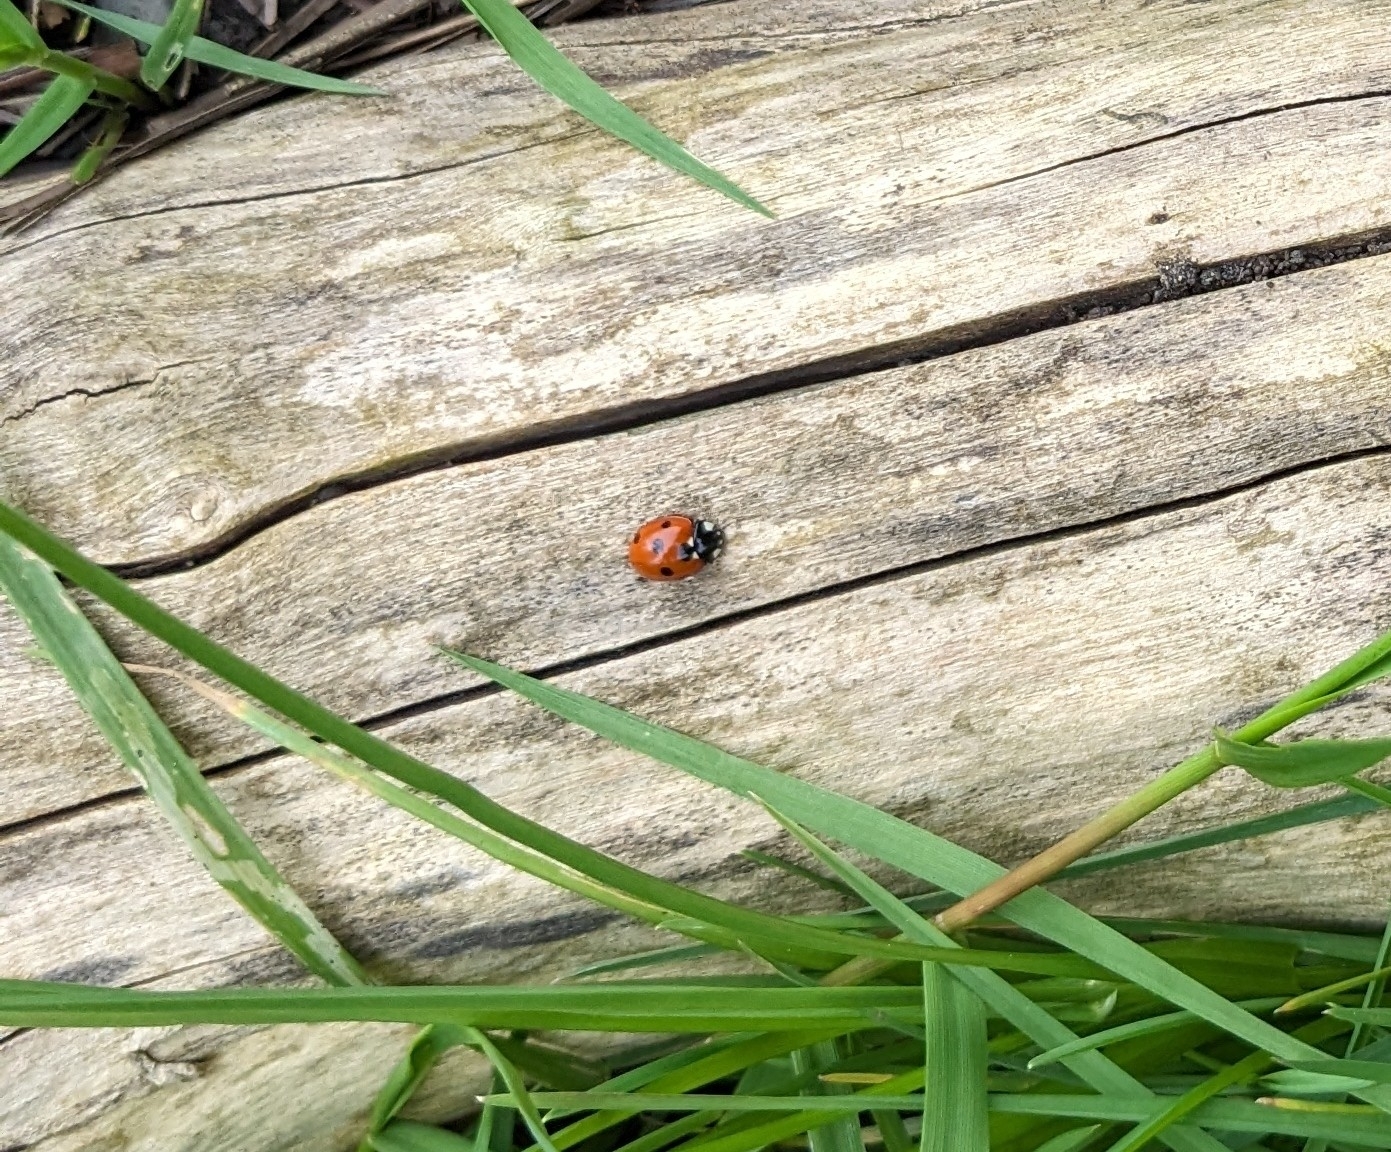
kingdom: Animalia
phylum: Arthropoda
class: Insecta
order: Coleoptera
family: Coccinellidae
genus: Coccinella
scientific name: Coccinella septempunctata
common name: Sevenspotted lady beetle
